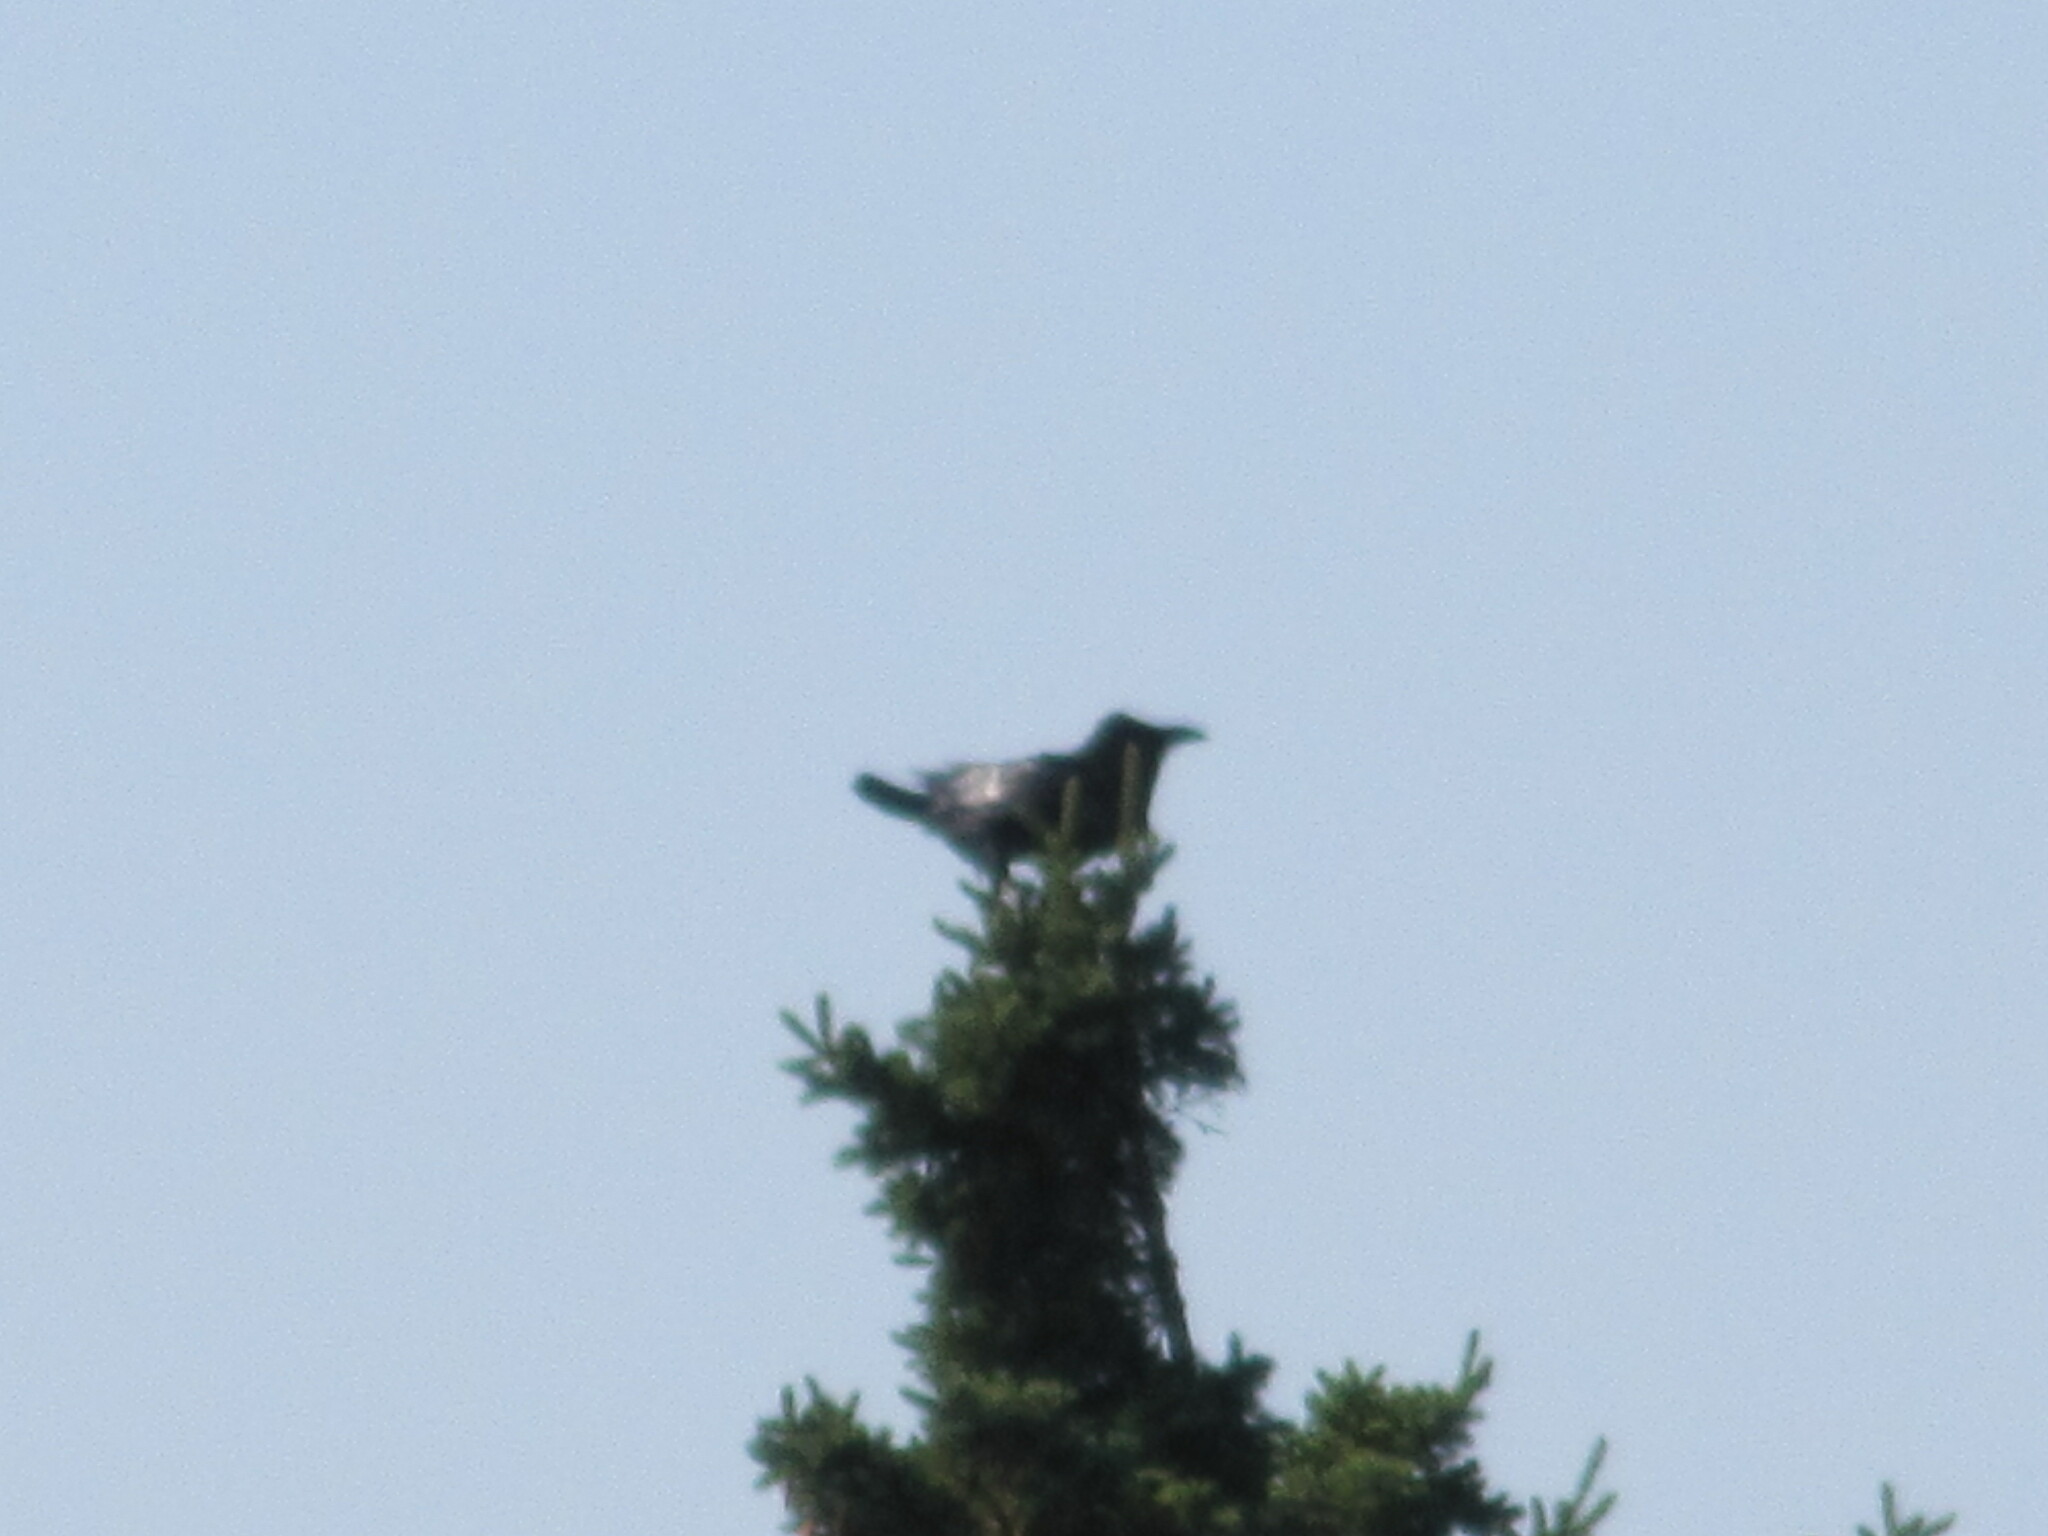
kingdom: Animalia
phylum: Chordata
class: Aves
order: Passeriformes
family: Corvidae
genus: Corvus
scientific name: Corvus corax
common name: Common raven
